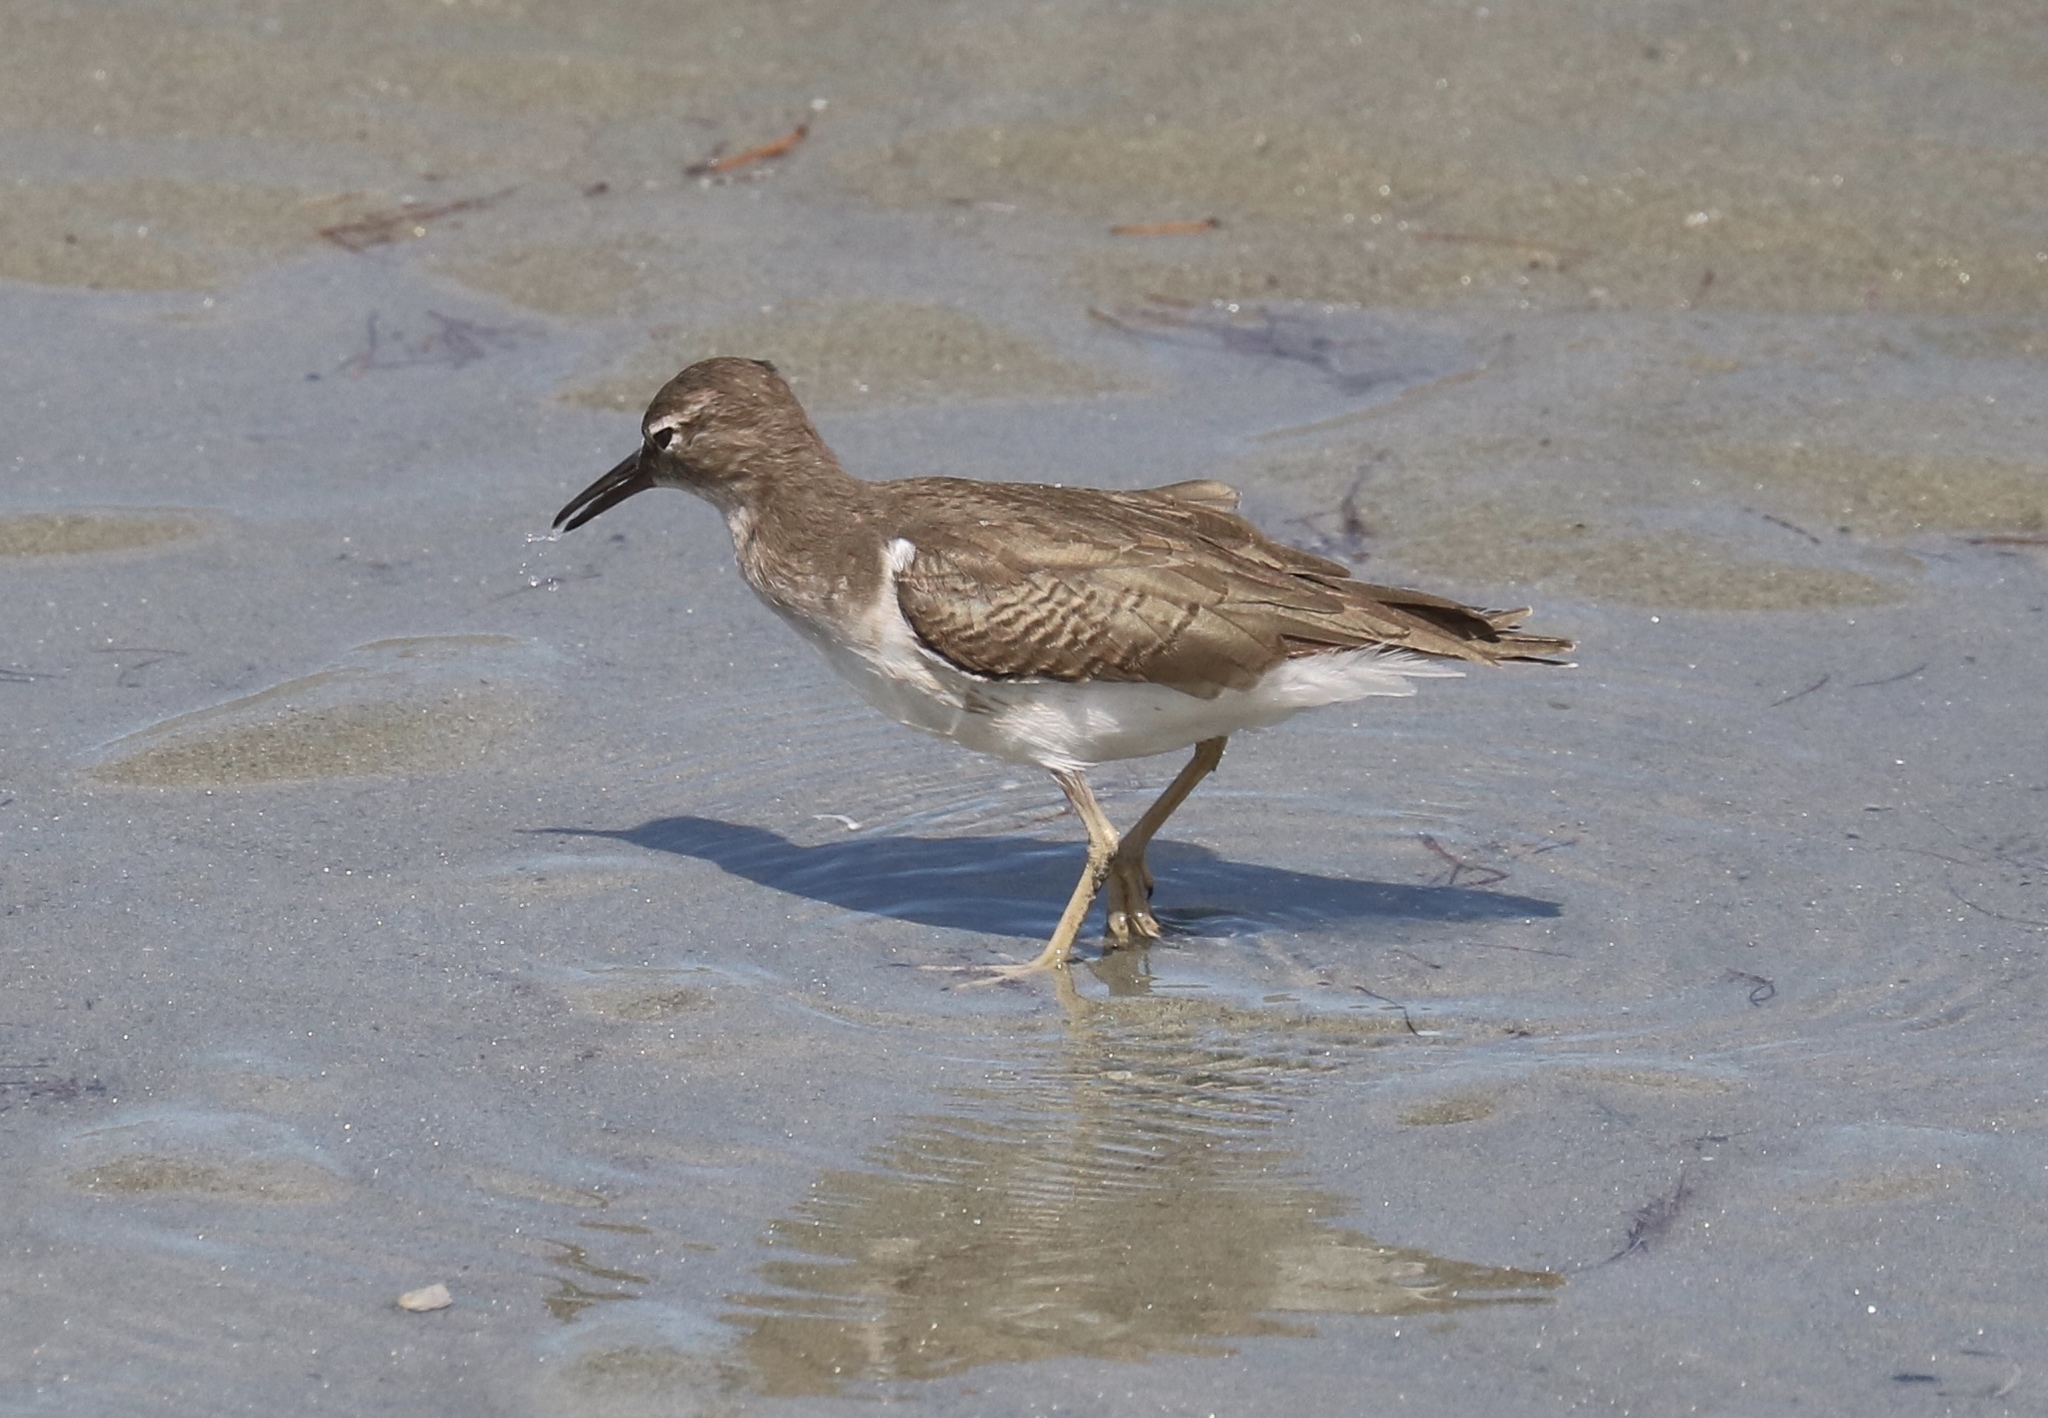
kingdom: Animalia
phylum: Chordata
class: Aves
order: Charadriiformes
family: Scolopacidae
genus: Actitis
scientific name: Actitis macularius
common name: Spotted sandpiper
